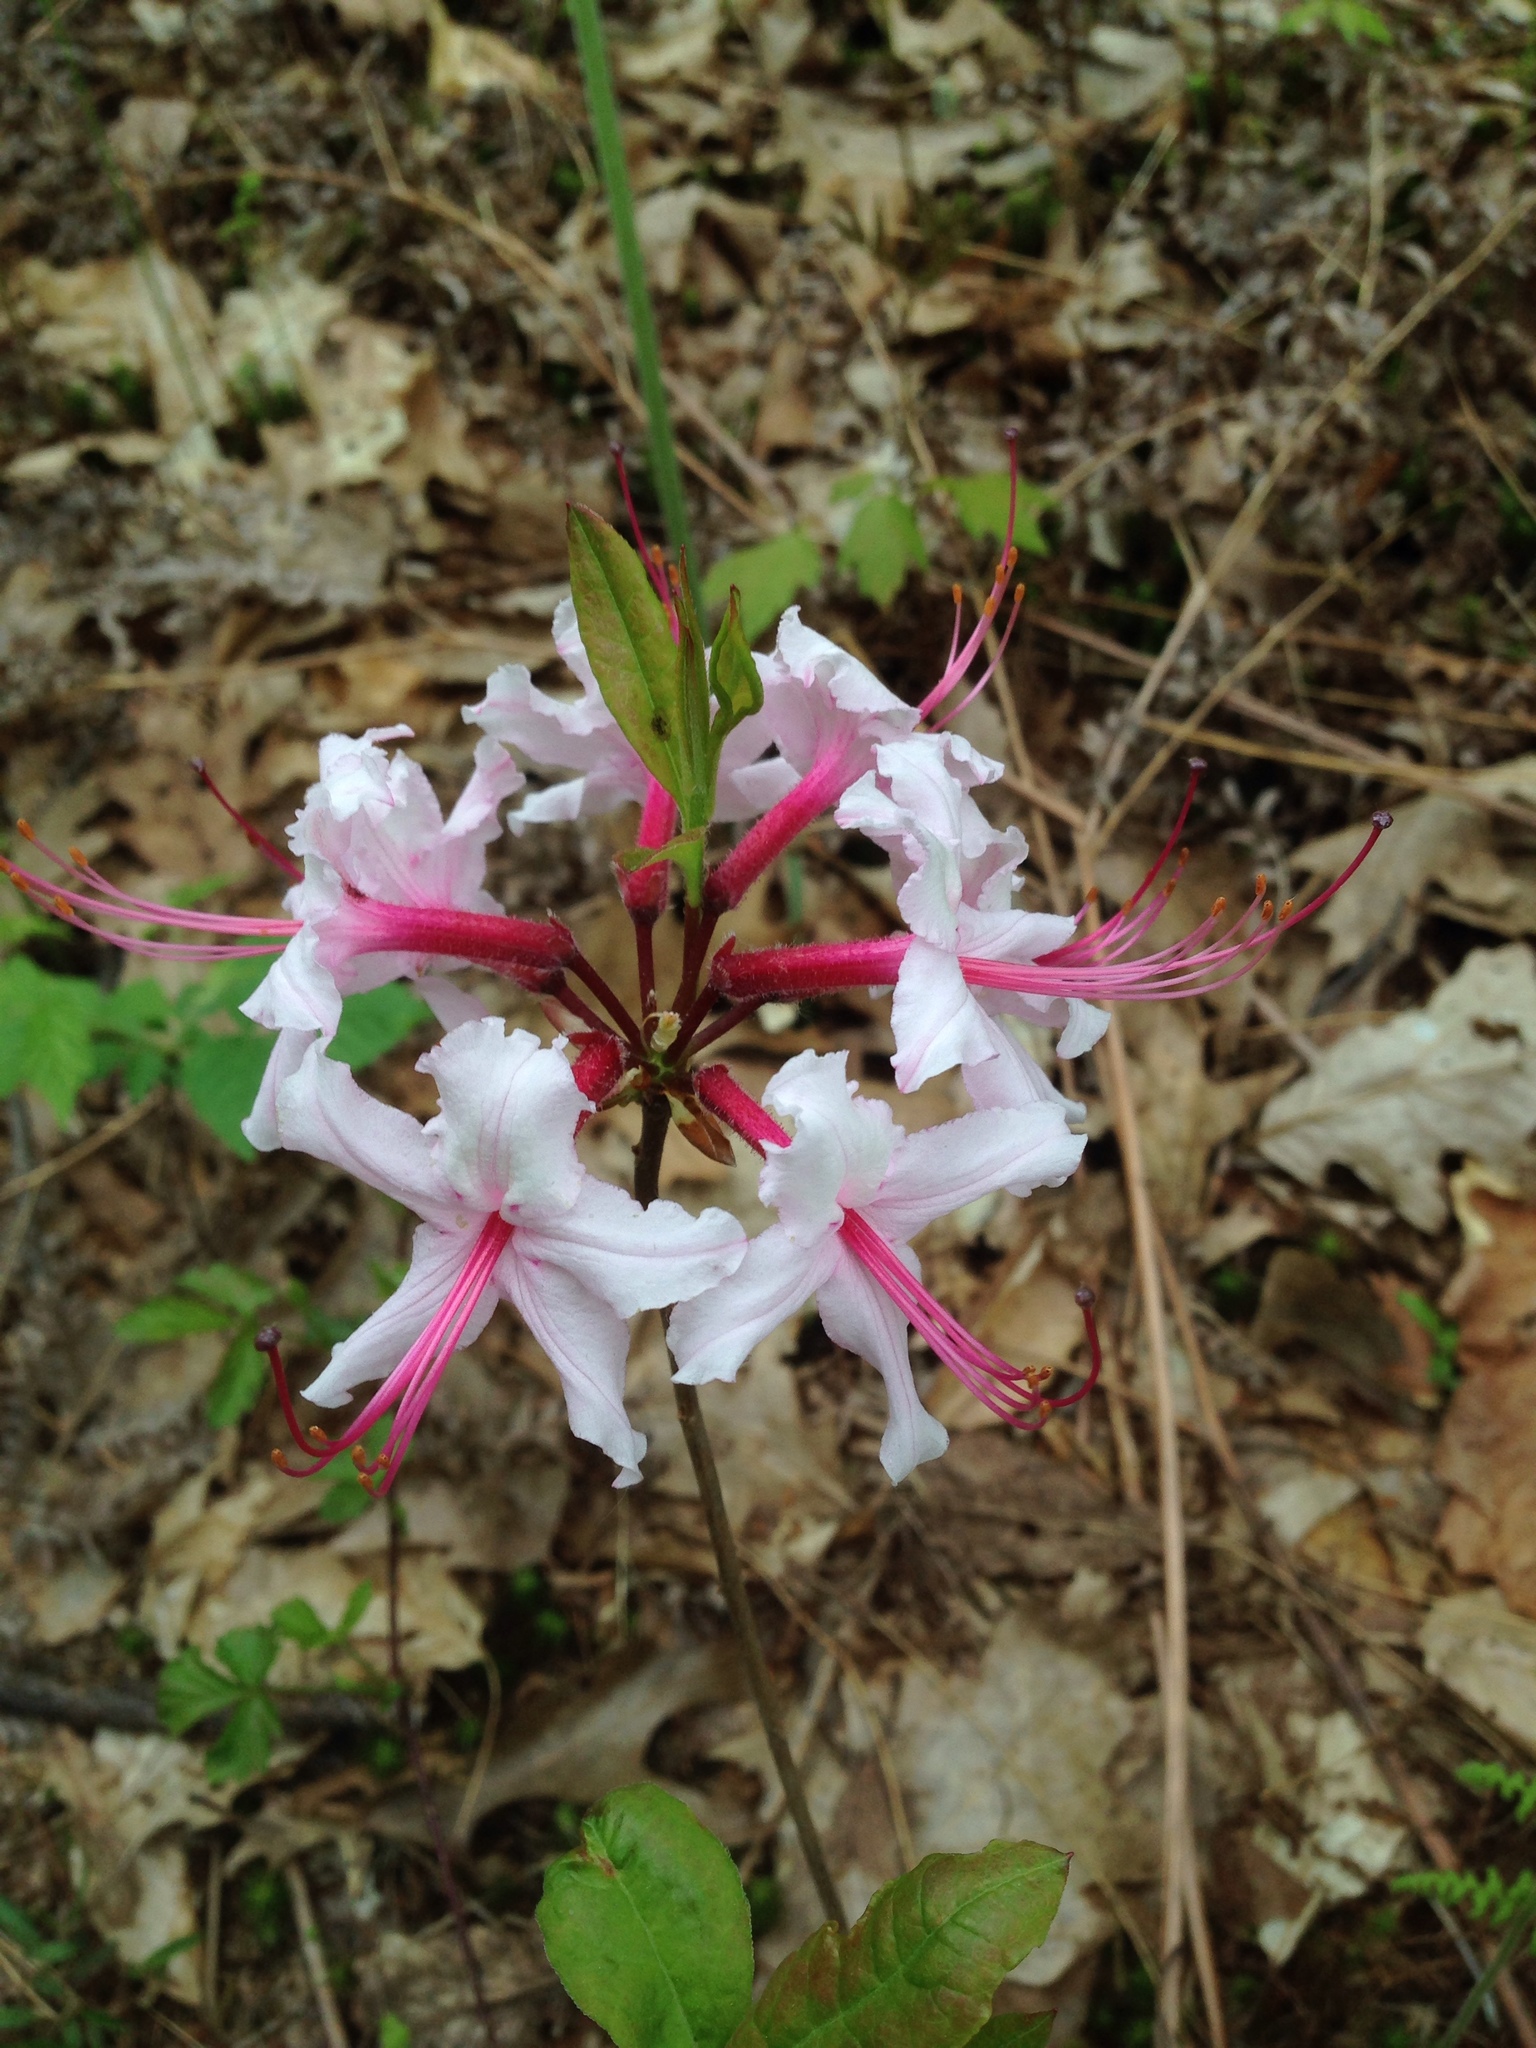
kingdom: Plantae
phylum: Tracheophyta
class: Magnoliopsida
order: Ericales
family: Ericaceae
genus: Rhododendron
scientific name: Rhododendron periclymenoides
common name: Election-pink
